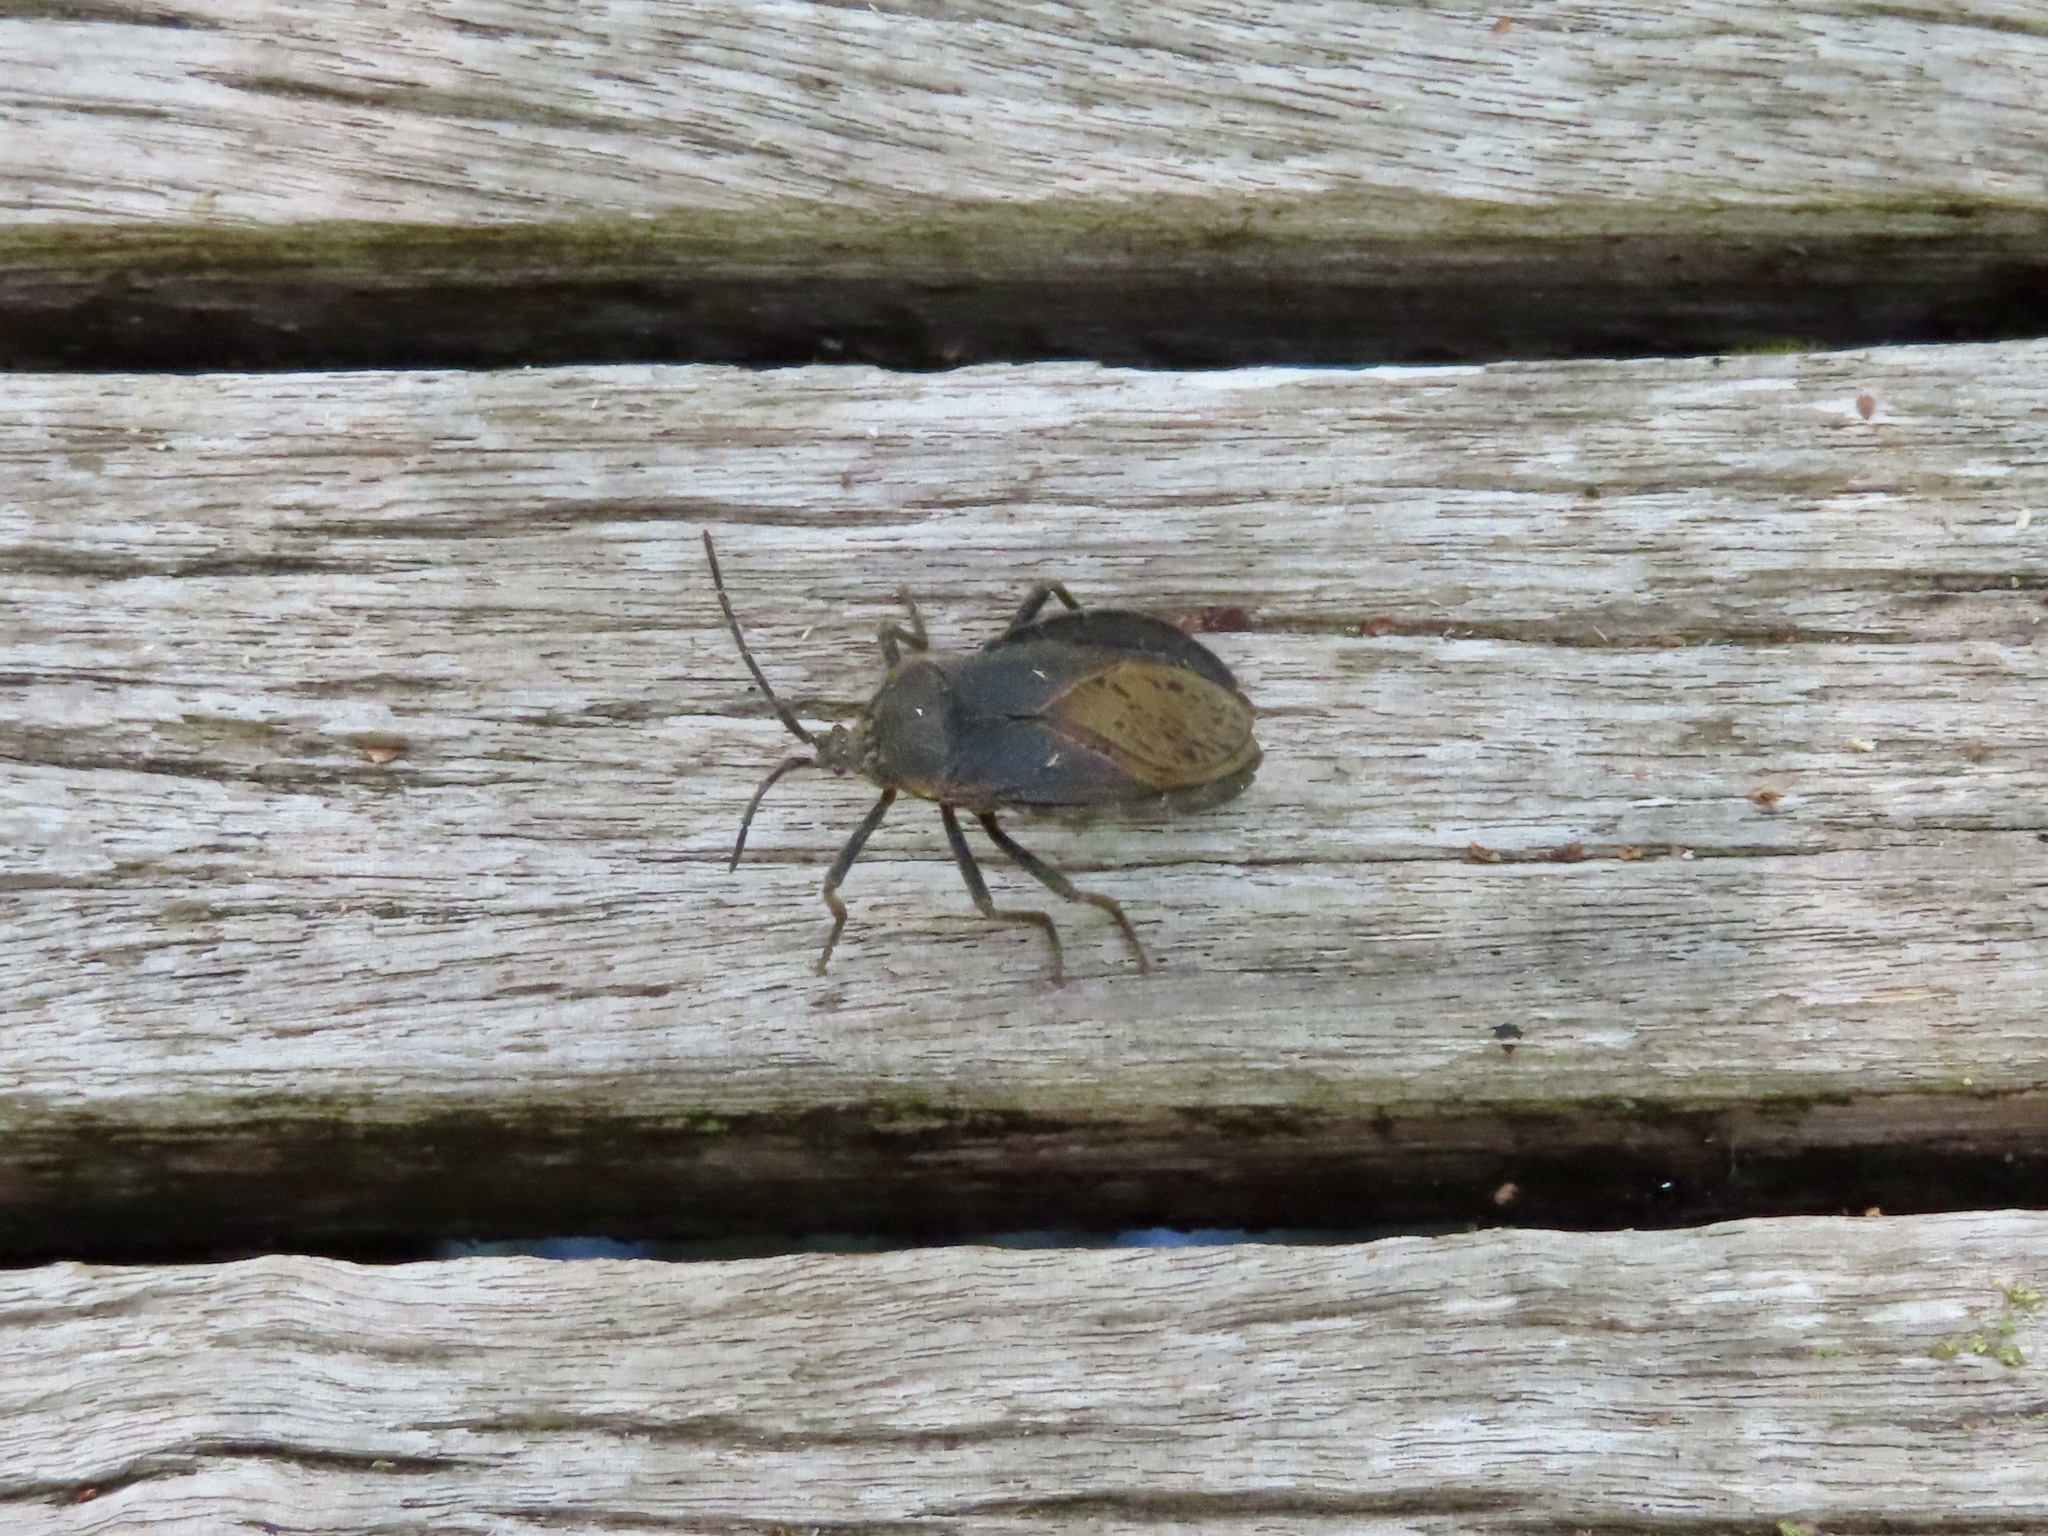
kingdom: Animalia
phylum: Arthropoda
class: Insecta
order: Hemiptera
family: Coreidae
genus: Spartocera
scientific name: Spartocera batatas
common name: Giant sweetpotato bug
